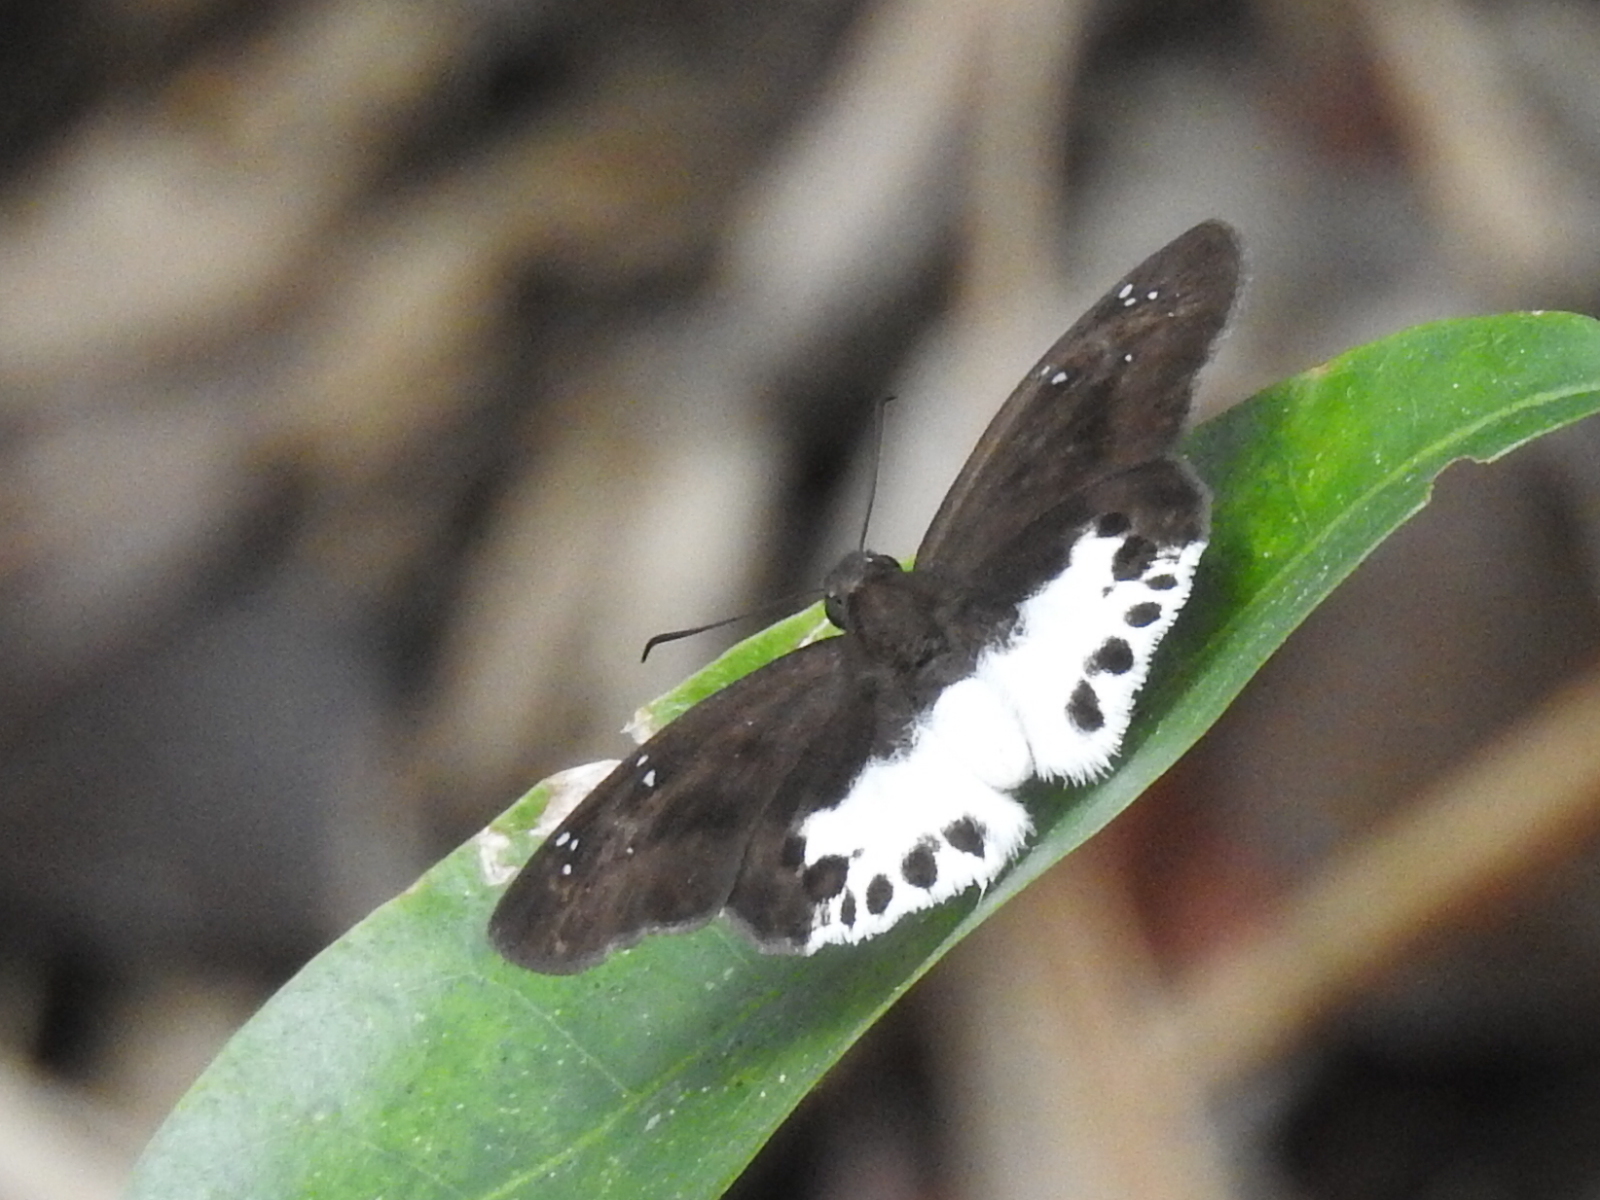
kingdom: Animalia
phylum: Arthropoda
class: Insecta
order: Lepidoptera
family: Hesperiidae
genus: Tagiades
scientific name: Tagiades litigiosa
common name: Water snow flat
